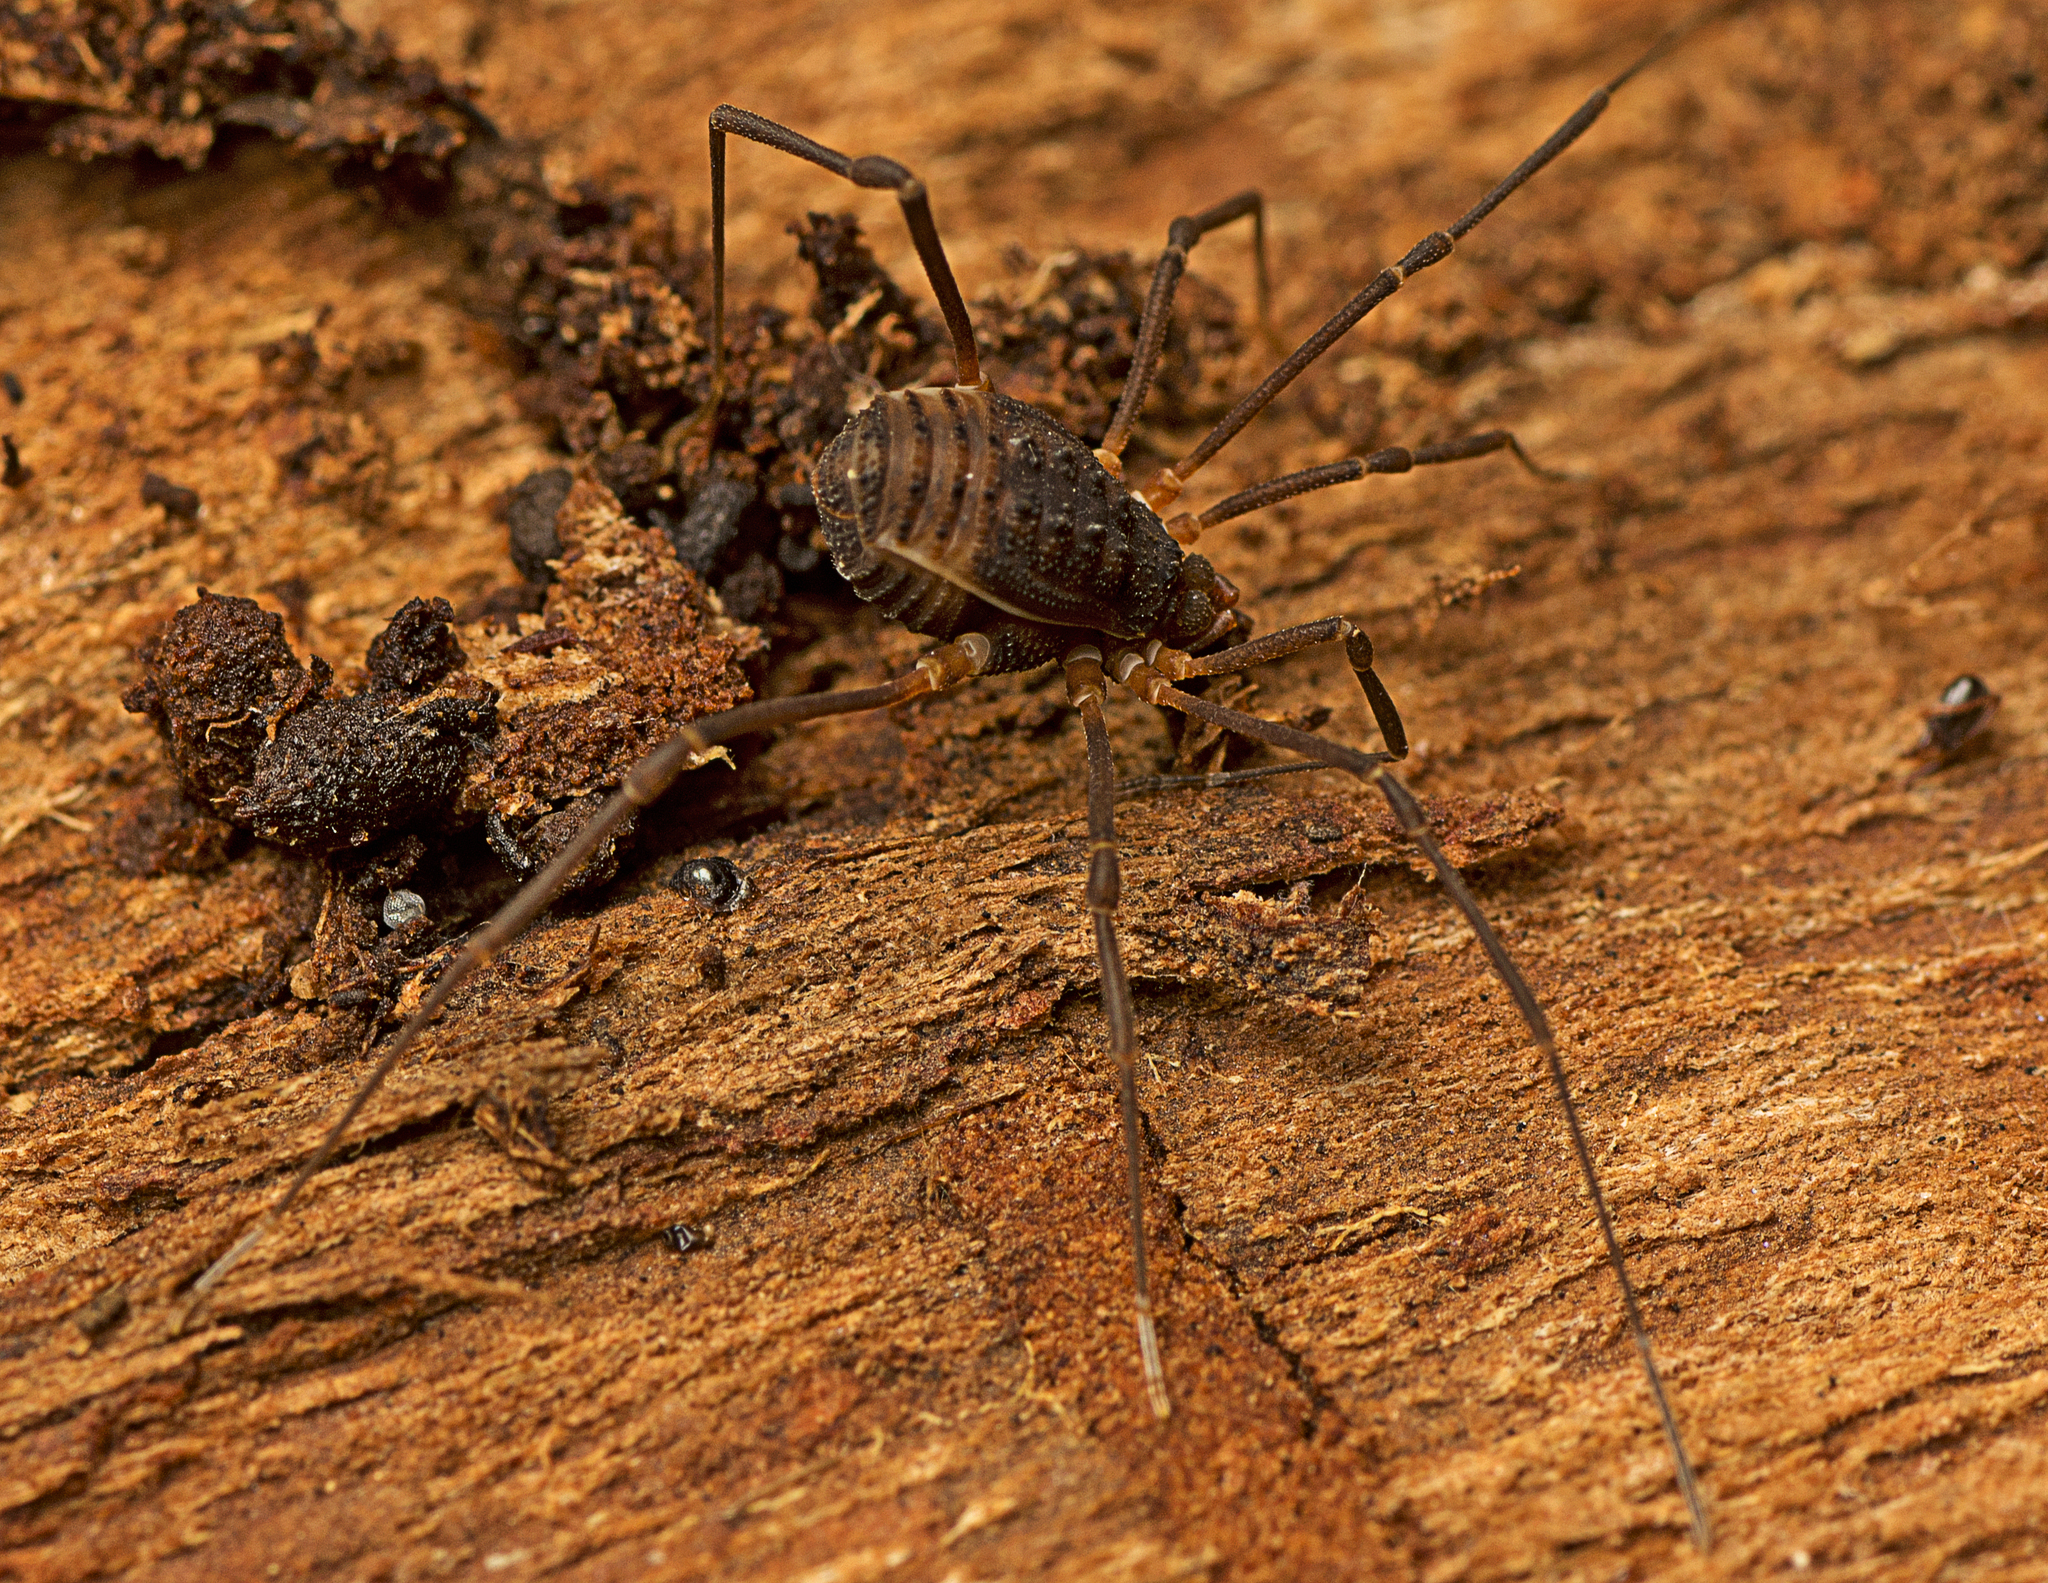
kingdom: Animalia
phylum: Arthropoda
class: Arachnida
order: Opiliones
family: Assamiidae
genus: Octobunus
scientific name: Octobunus singularis
